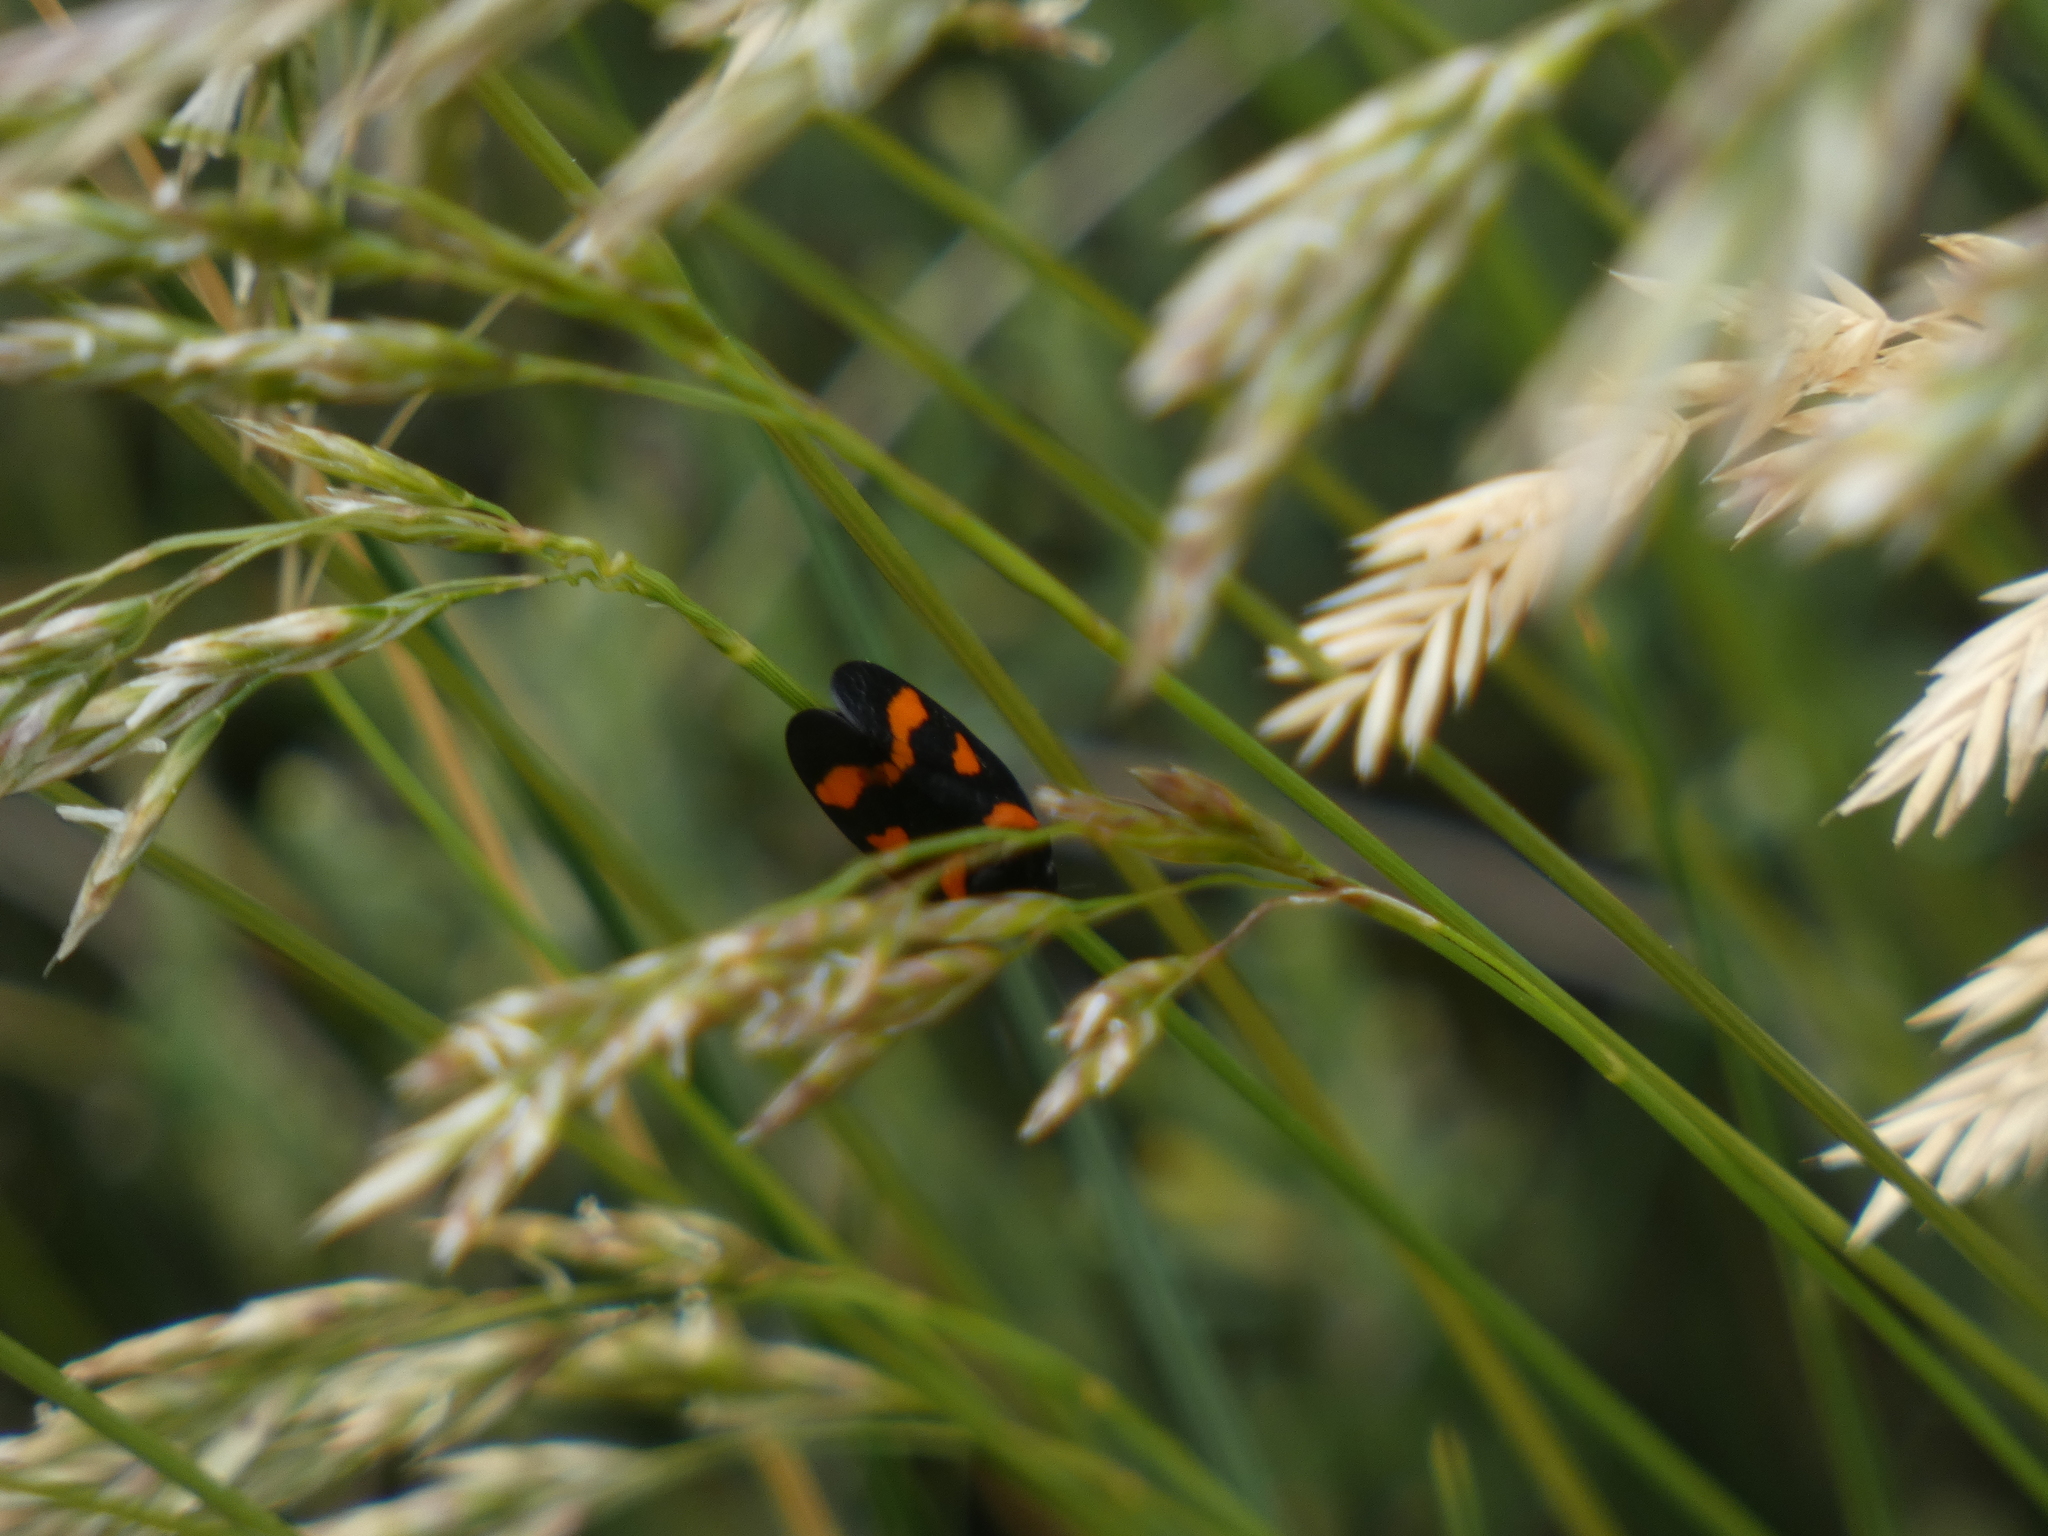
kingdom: Animalia
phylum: Arthropoda
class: Insecta
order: Hemiptera
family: Cercopidae
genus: Cercopis
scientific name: Cercopis
